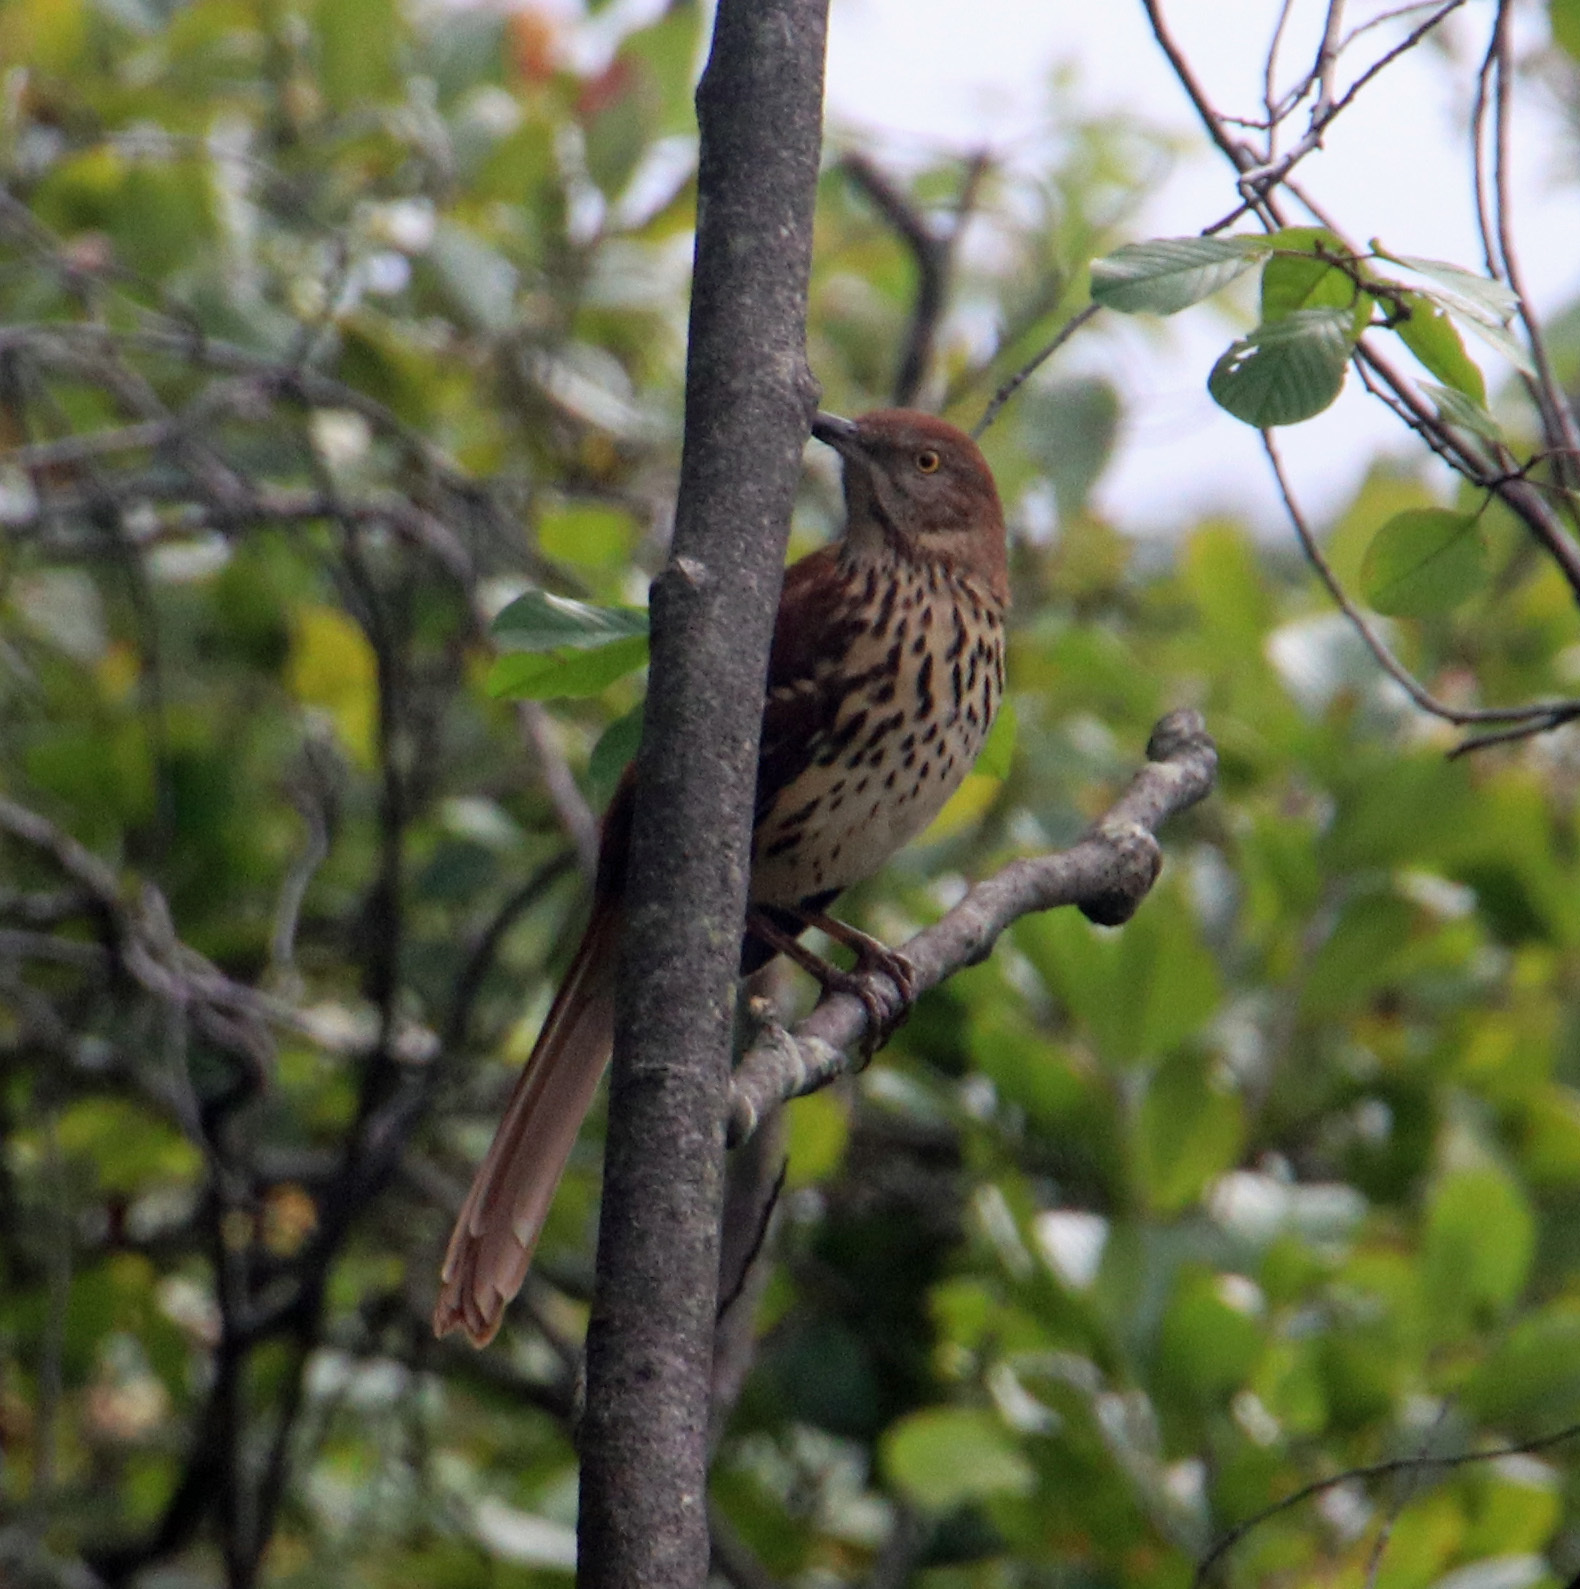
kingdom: Animalia
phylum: Chordata
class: Aves
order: Passeriformes
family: Mimidae
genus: Toxostoma
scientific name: Toxostoma rufum
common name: Brown thrasher
